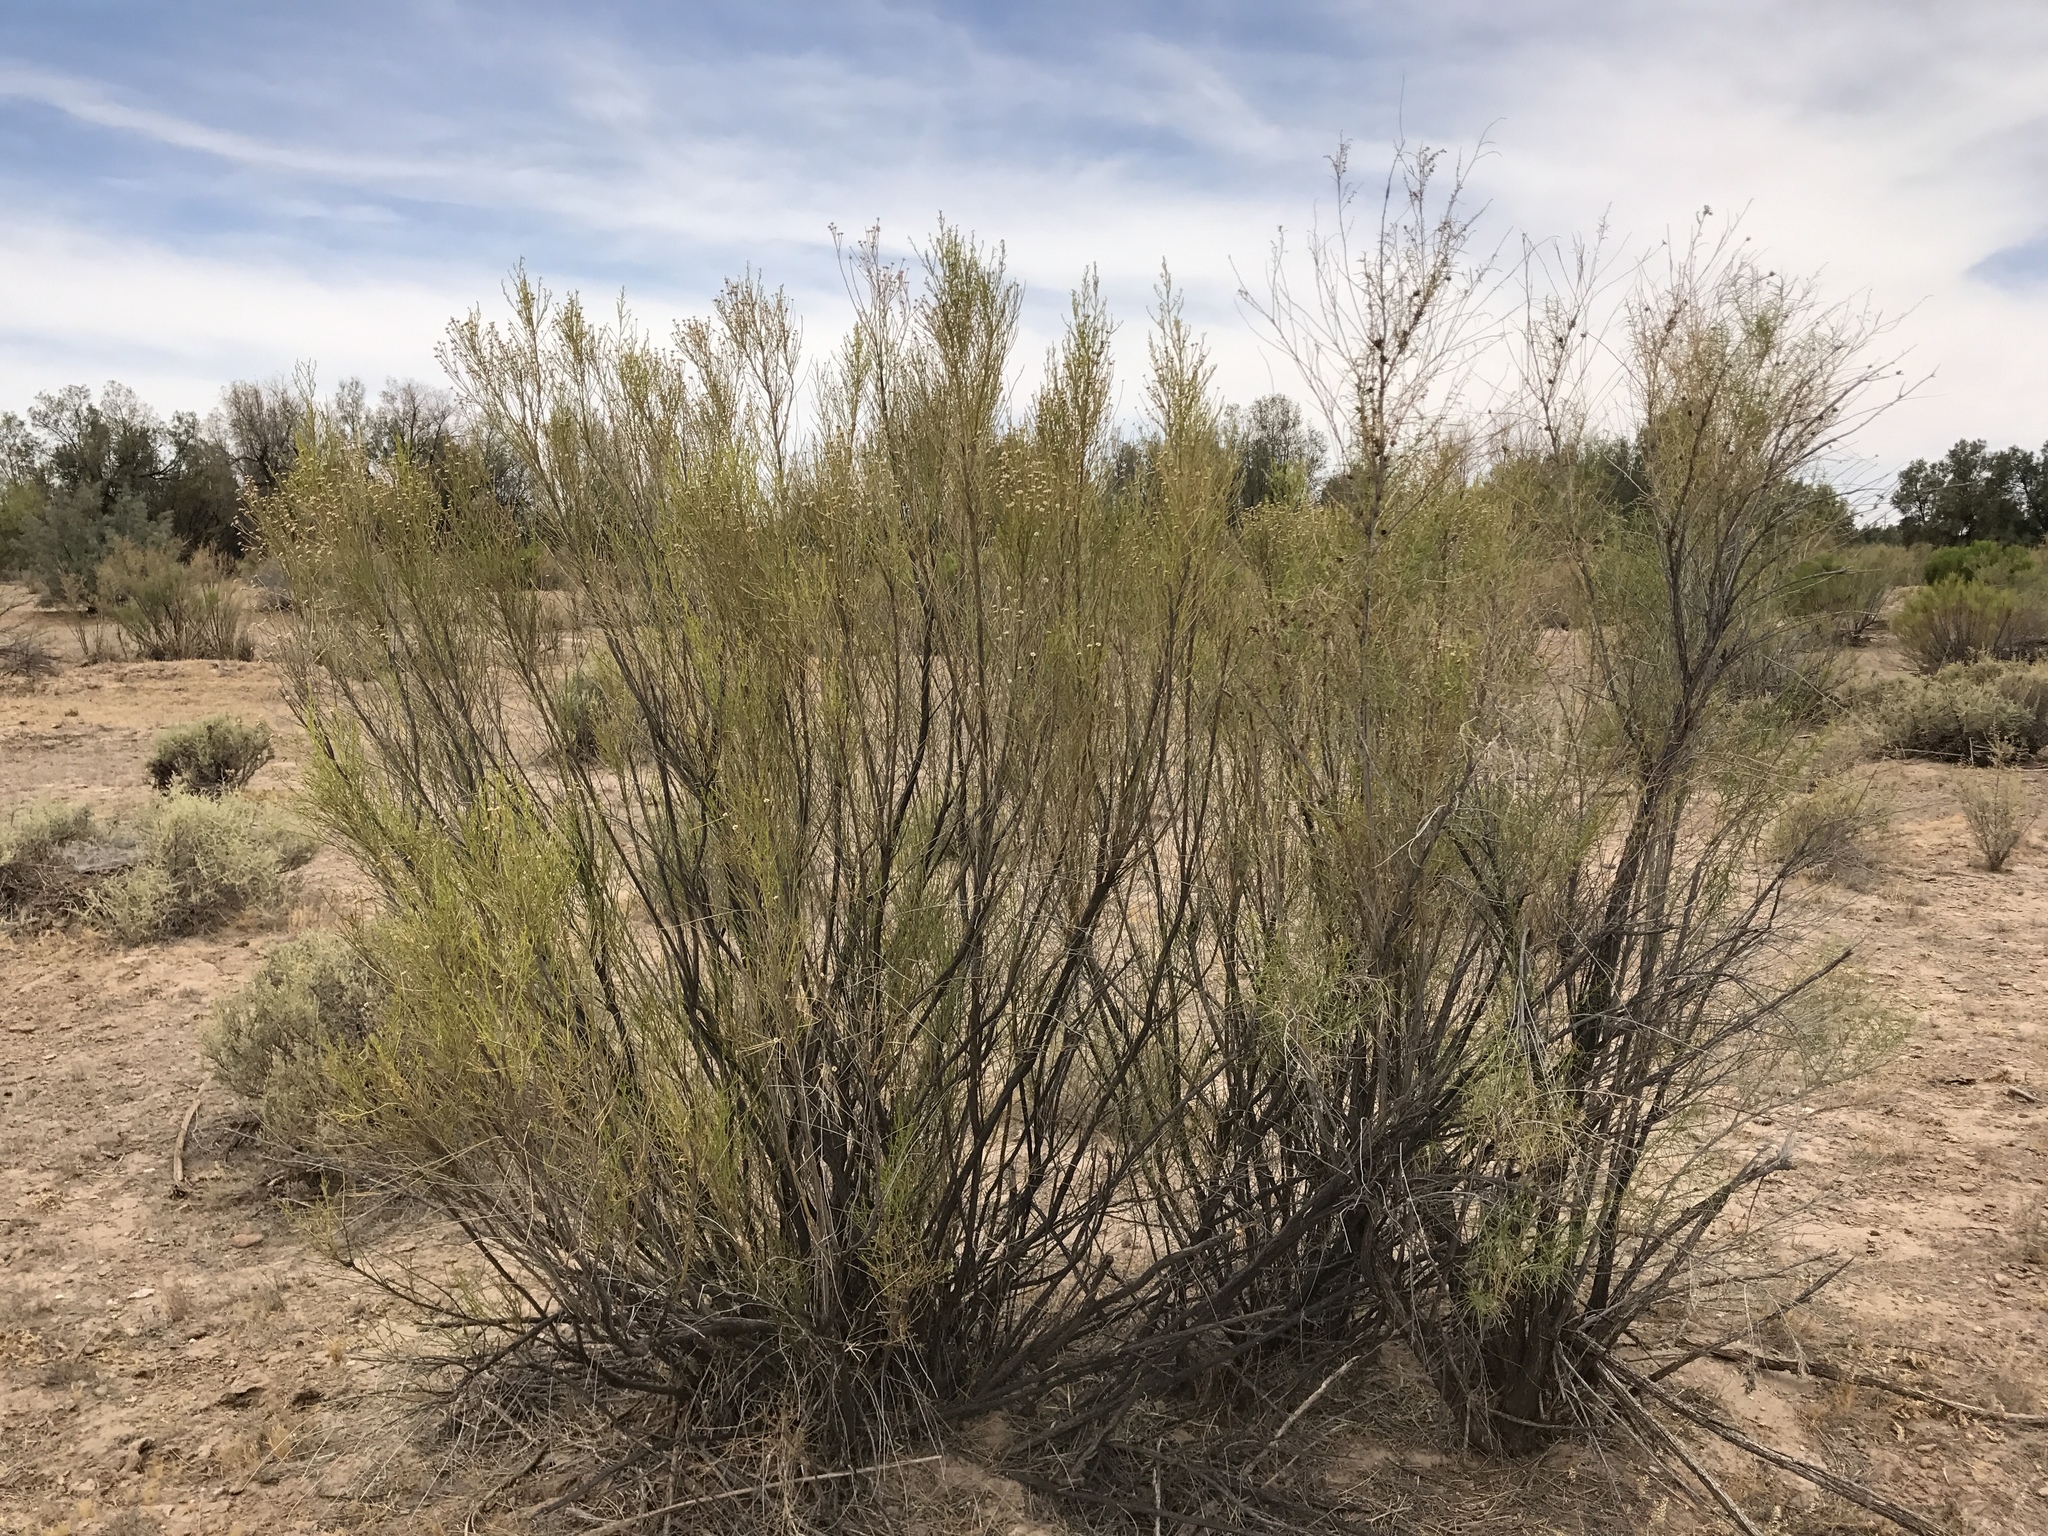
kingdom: Plantae
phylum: Tracheophyta
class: Magnoliopsida
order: Asterales
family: Asteraceae
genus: Baccharis
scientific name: Baccharis sarothroides
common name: Desert-broom
